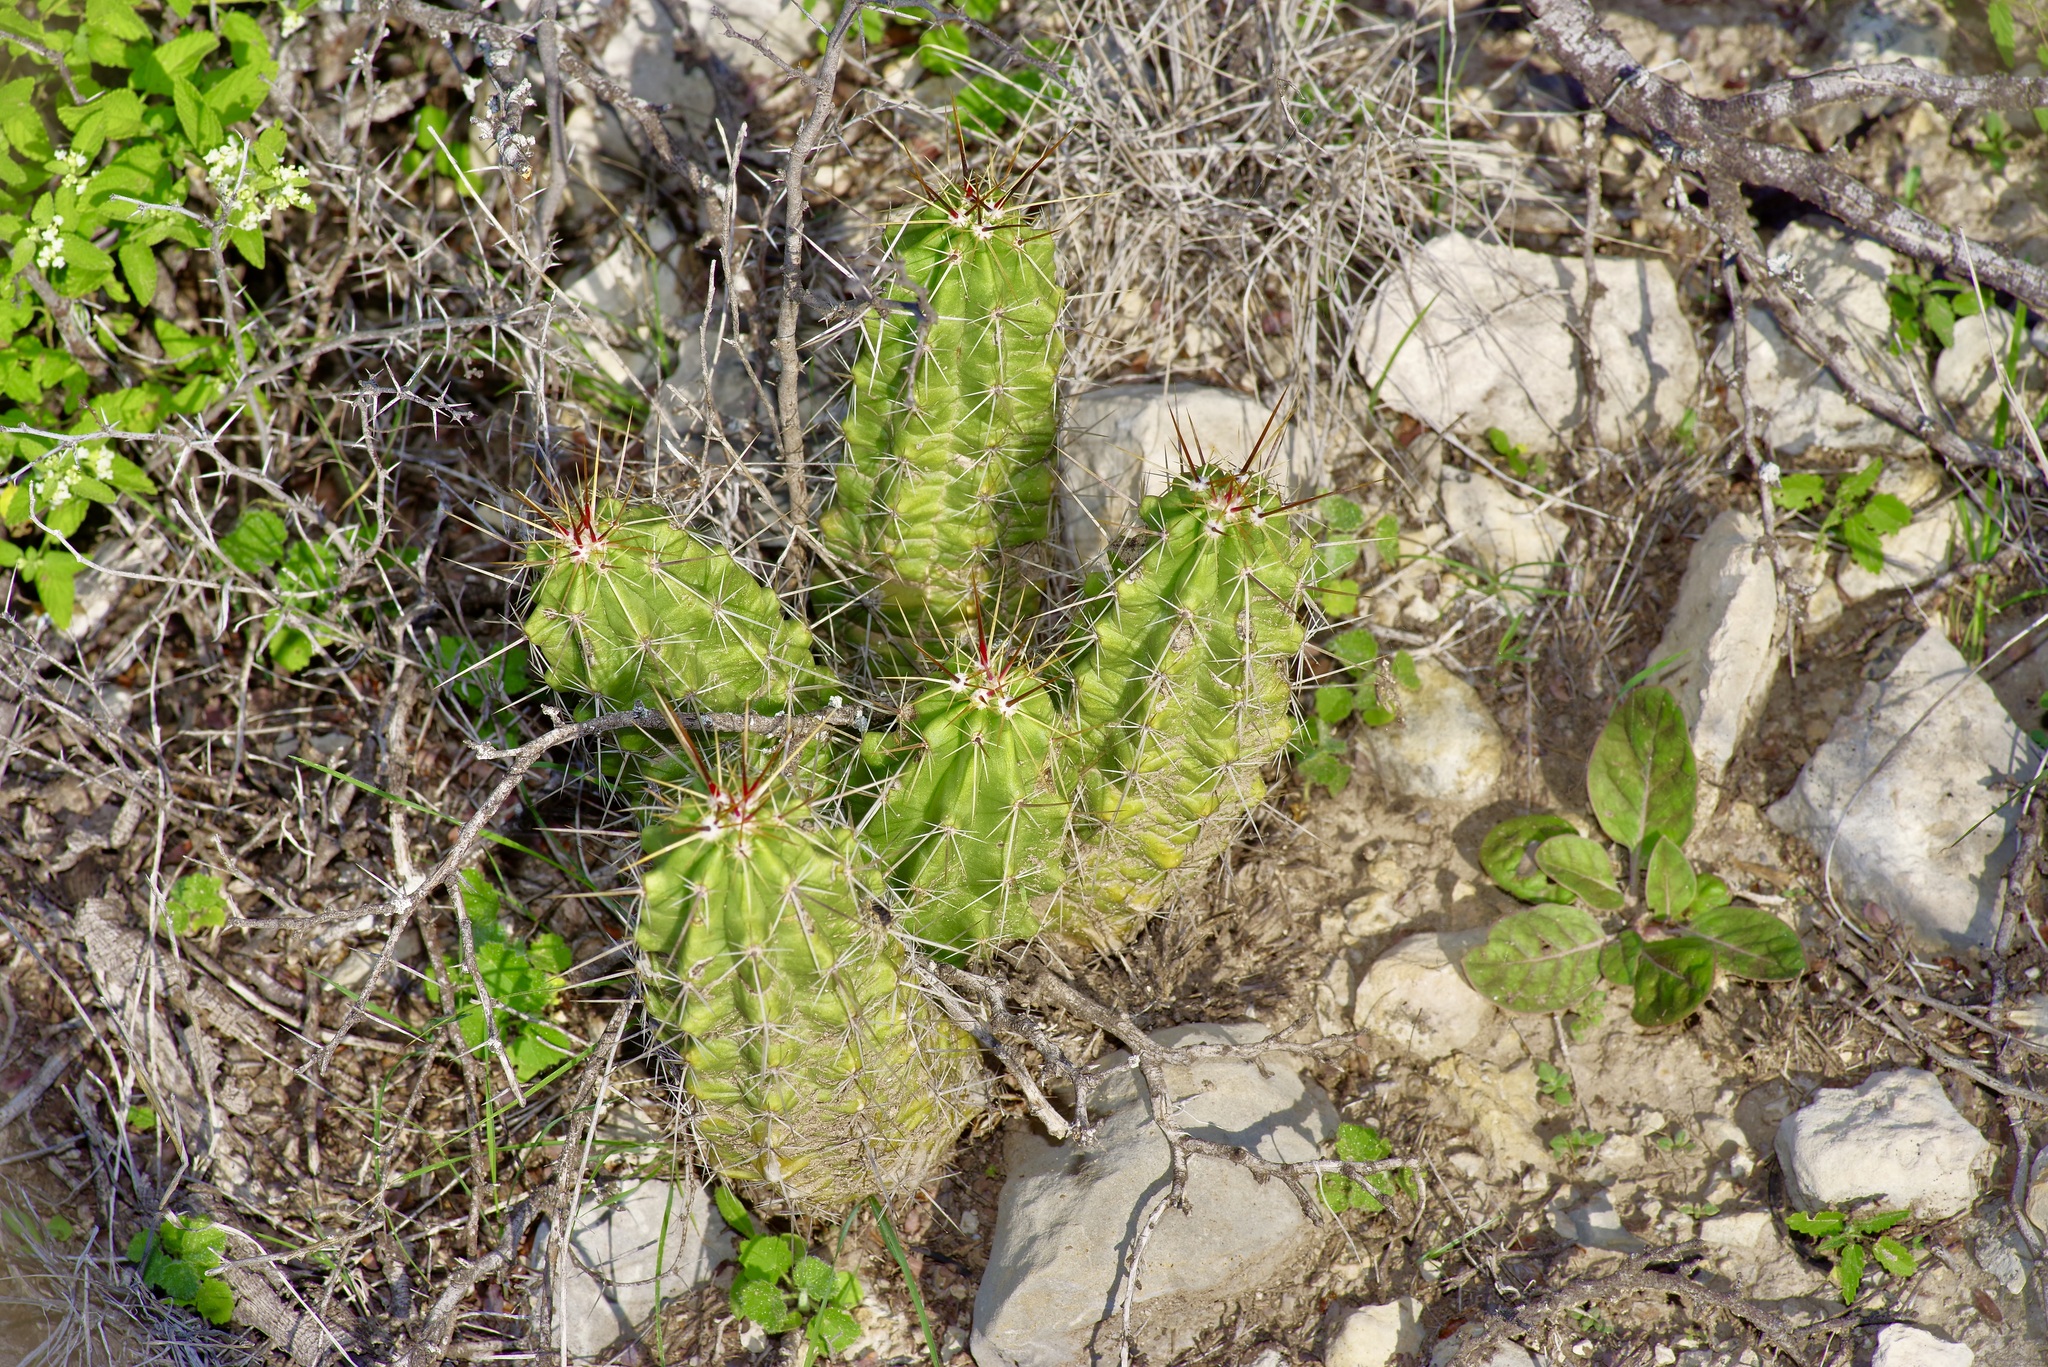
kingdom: Plantae
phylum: Tracheophyta
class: Magnoliopsida
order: Caryophyllales
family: Cactaceae
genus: Echinocereus
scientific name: Echinocereus enneacanthus
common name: Pitaya
